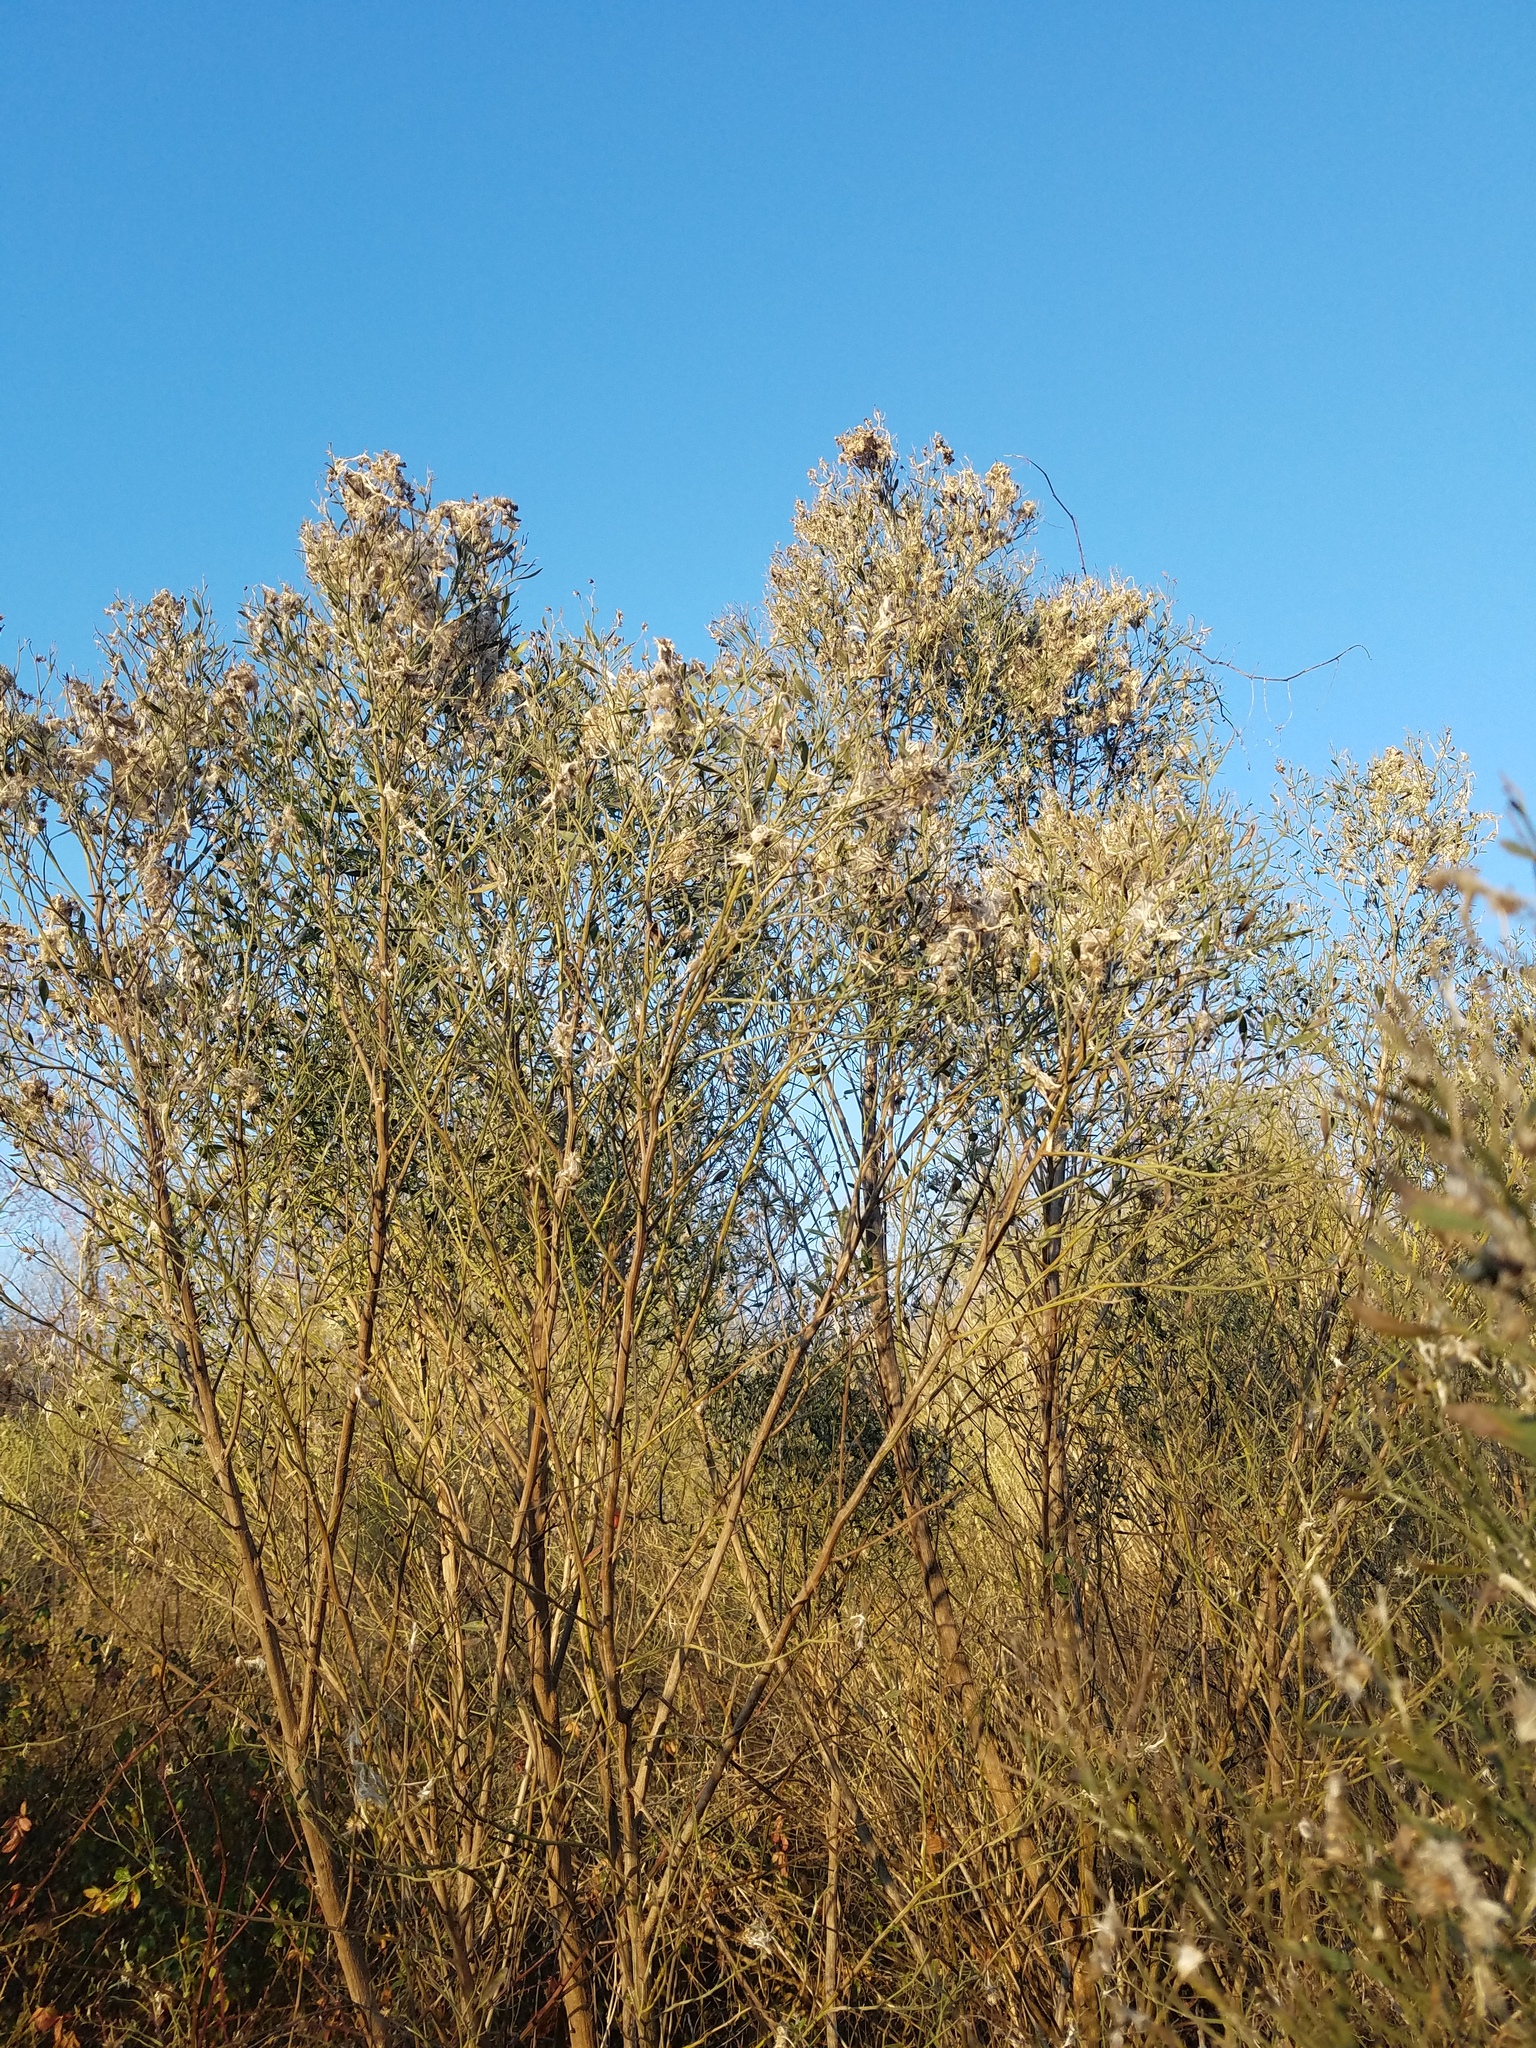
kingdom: Plantae
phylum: Tracheophyta
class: Magnoliopsida
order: Asterales
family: Asteraceae
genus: Baccharis
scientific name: Baccharis halimifolia
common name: Eastern baccharis
